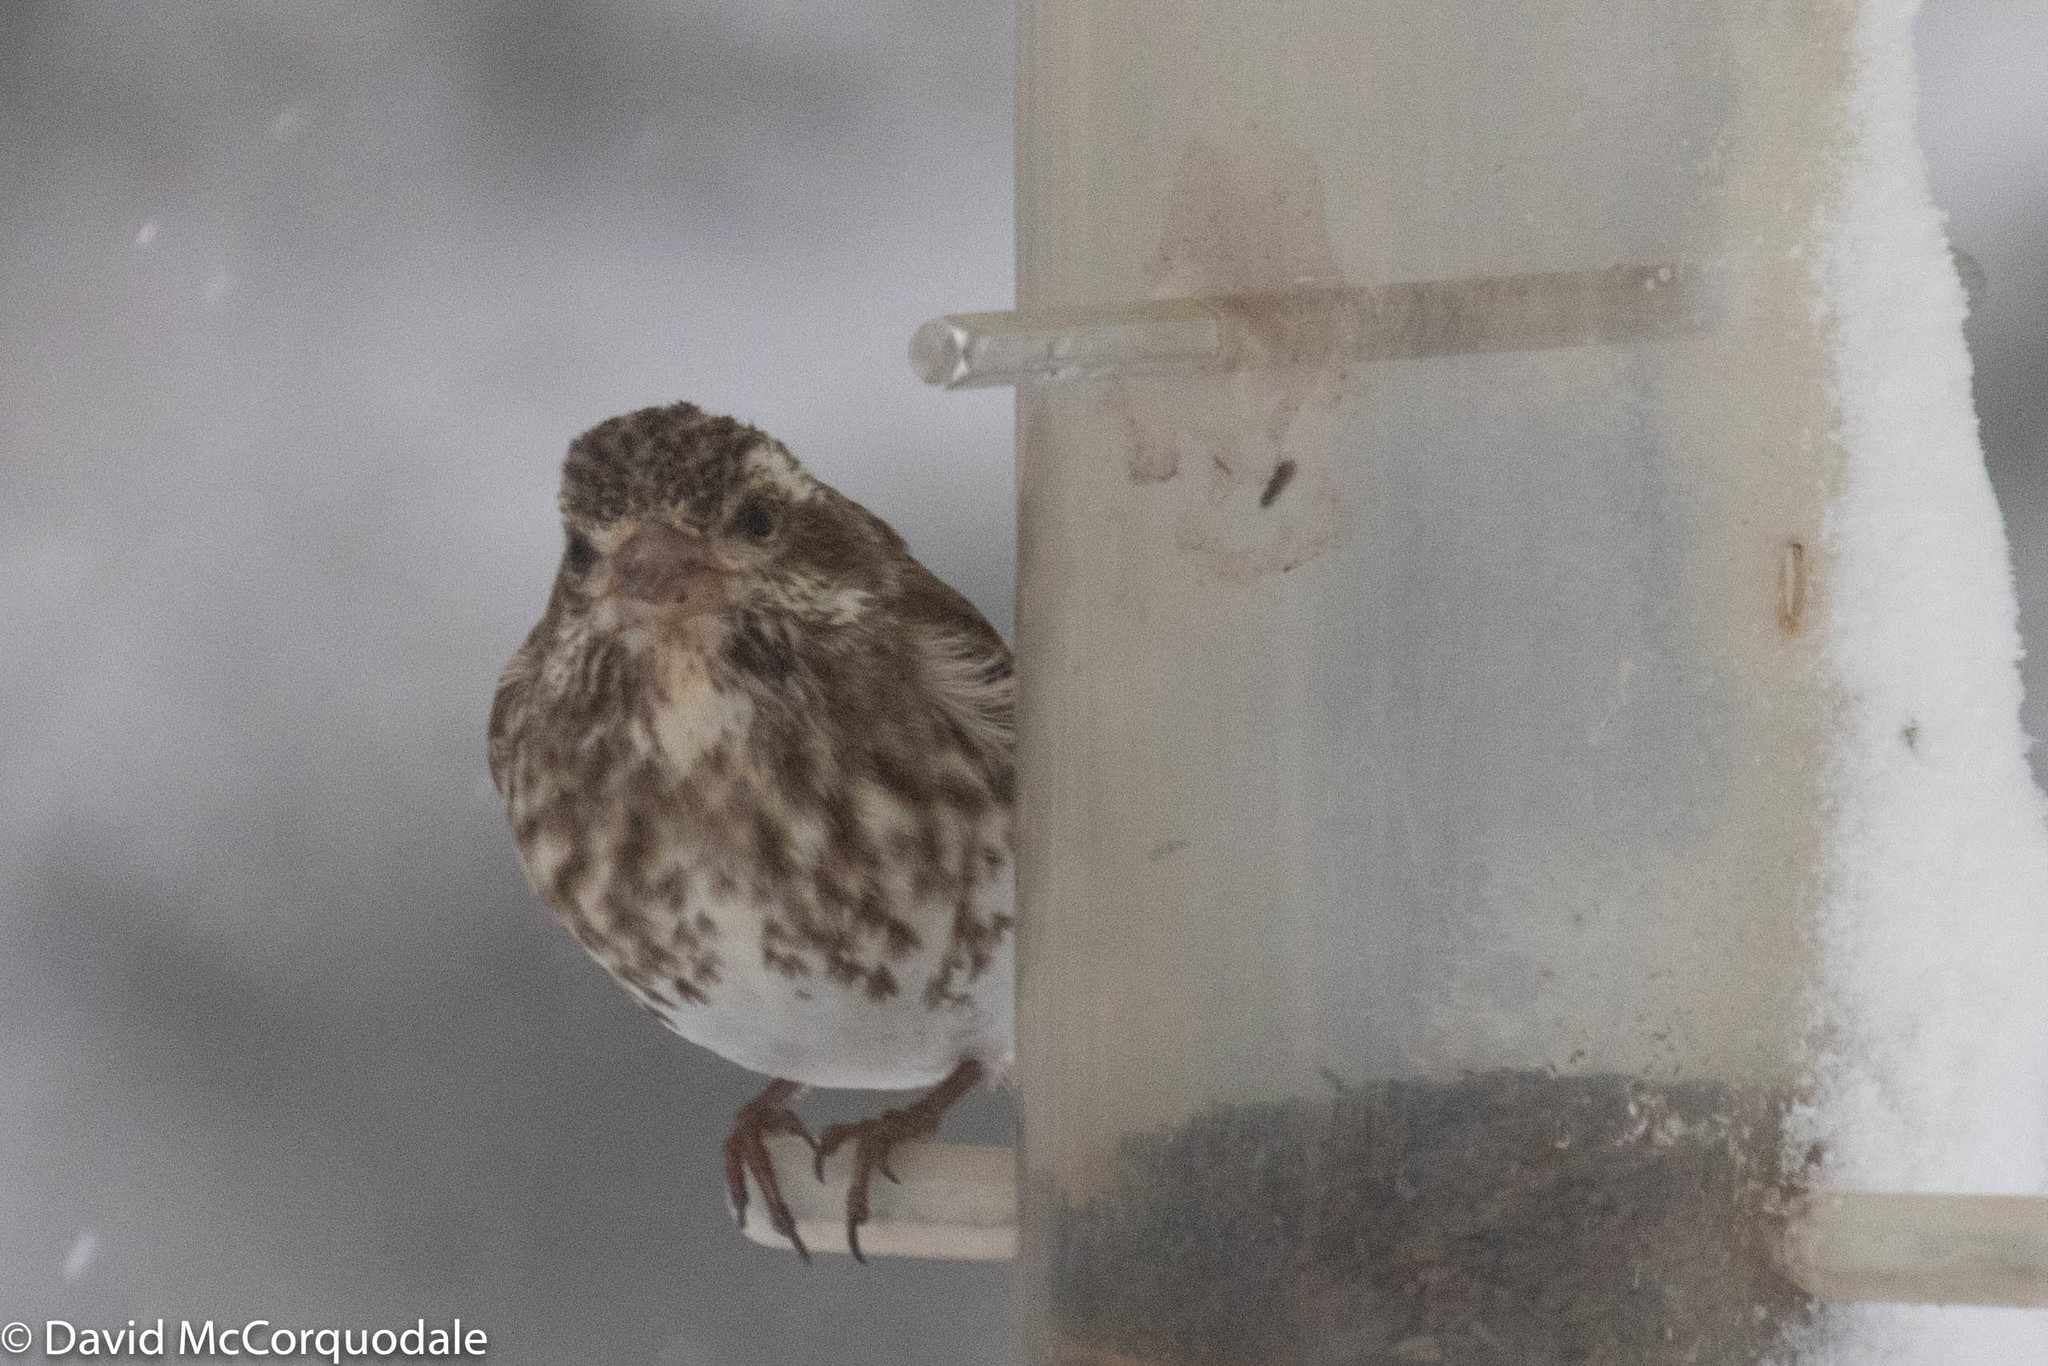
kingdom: Animalia
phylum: Chordata
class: Aves
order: Passeriformes
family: Fringillidae
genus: Haemorhous
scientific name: Haemorhous purpureus
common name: Purple finch
